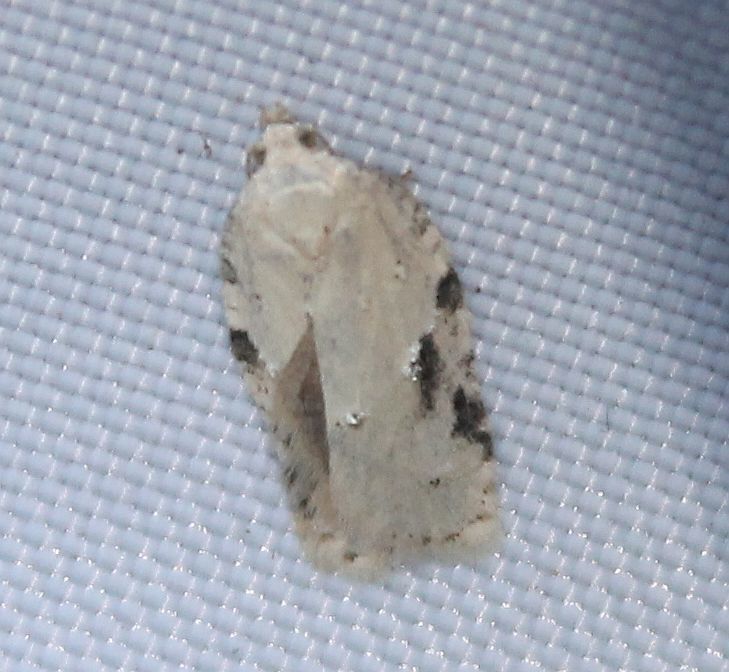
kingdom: Animalia
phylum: Arthropoda
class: Insecta
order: Lepidoptera
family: Tortricidae
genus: Acleris
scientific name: Acleris kochiella
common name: Elm button
